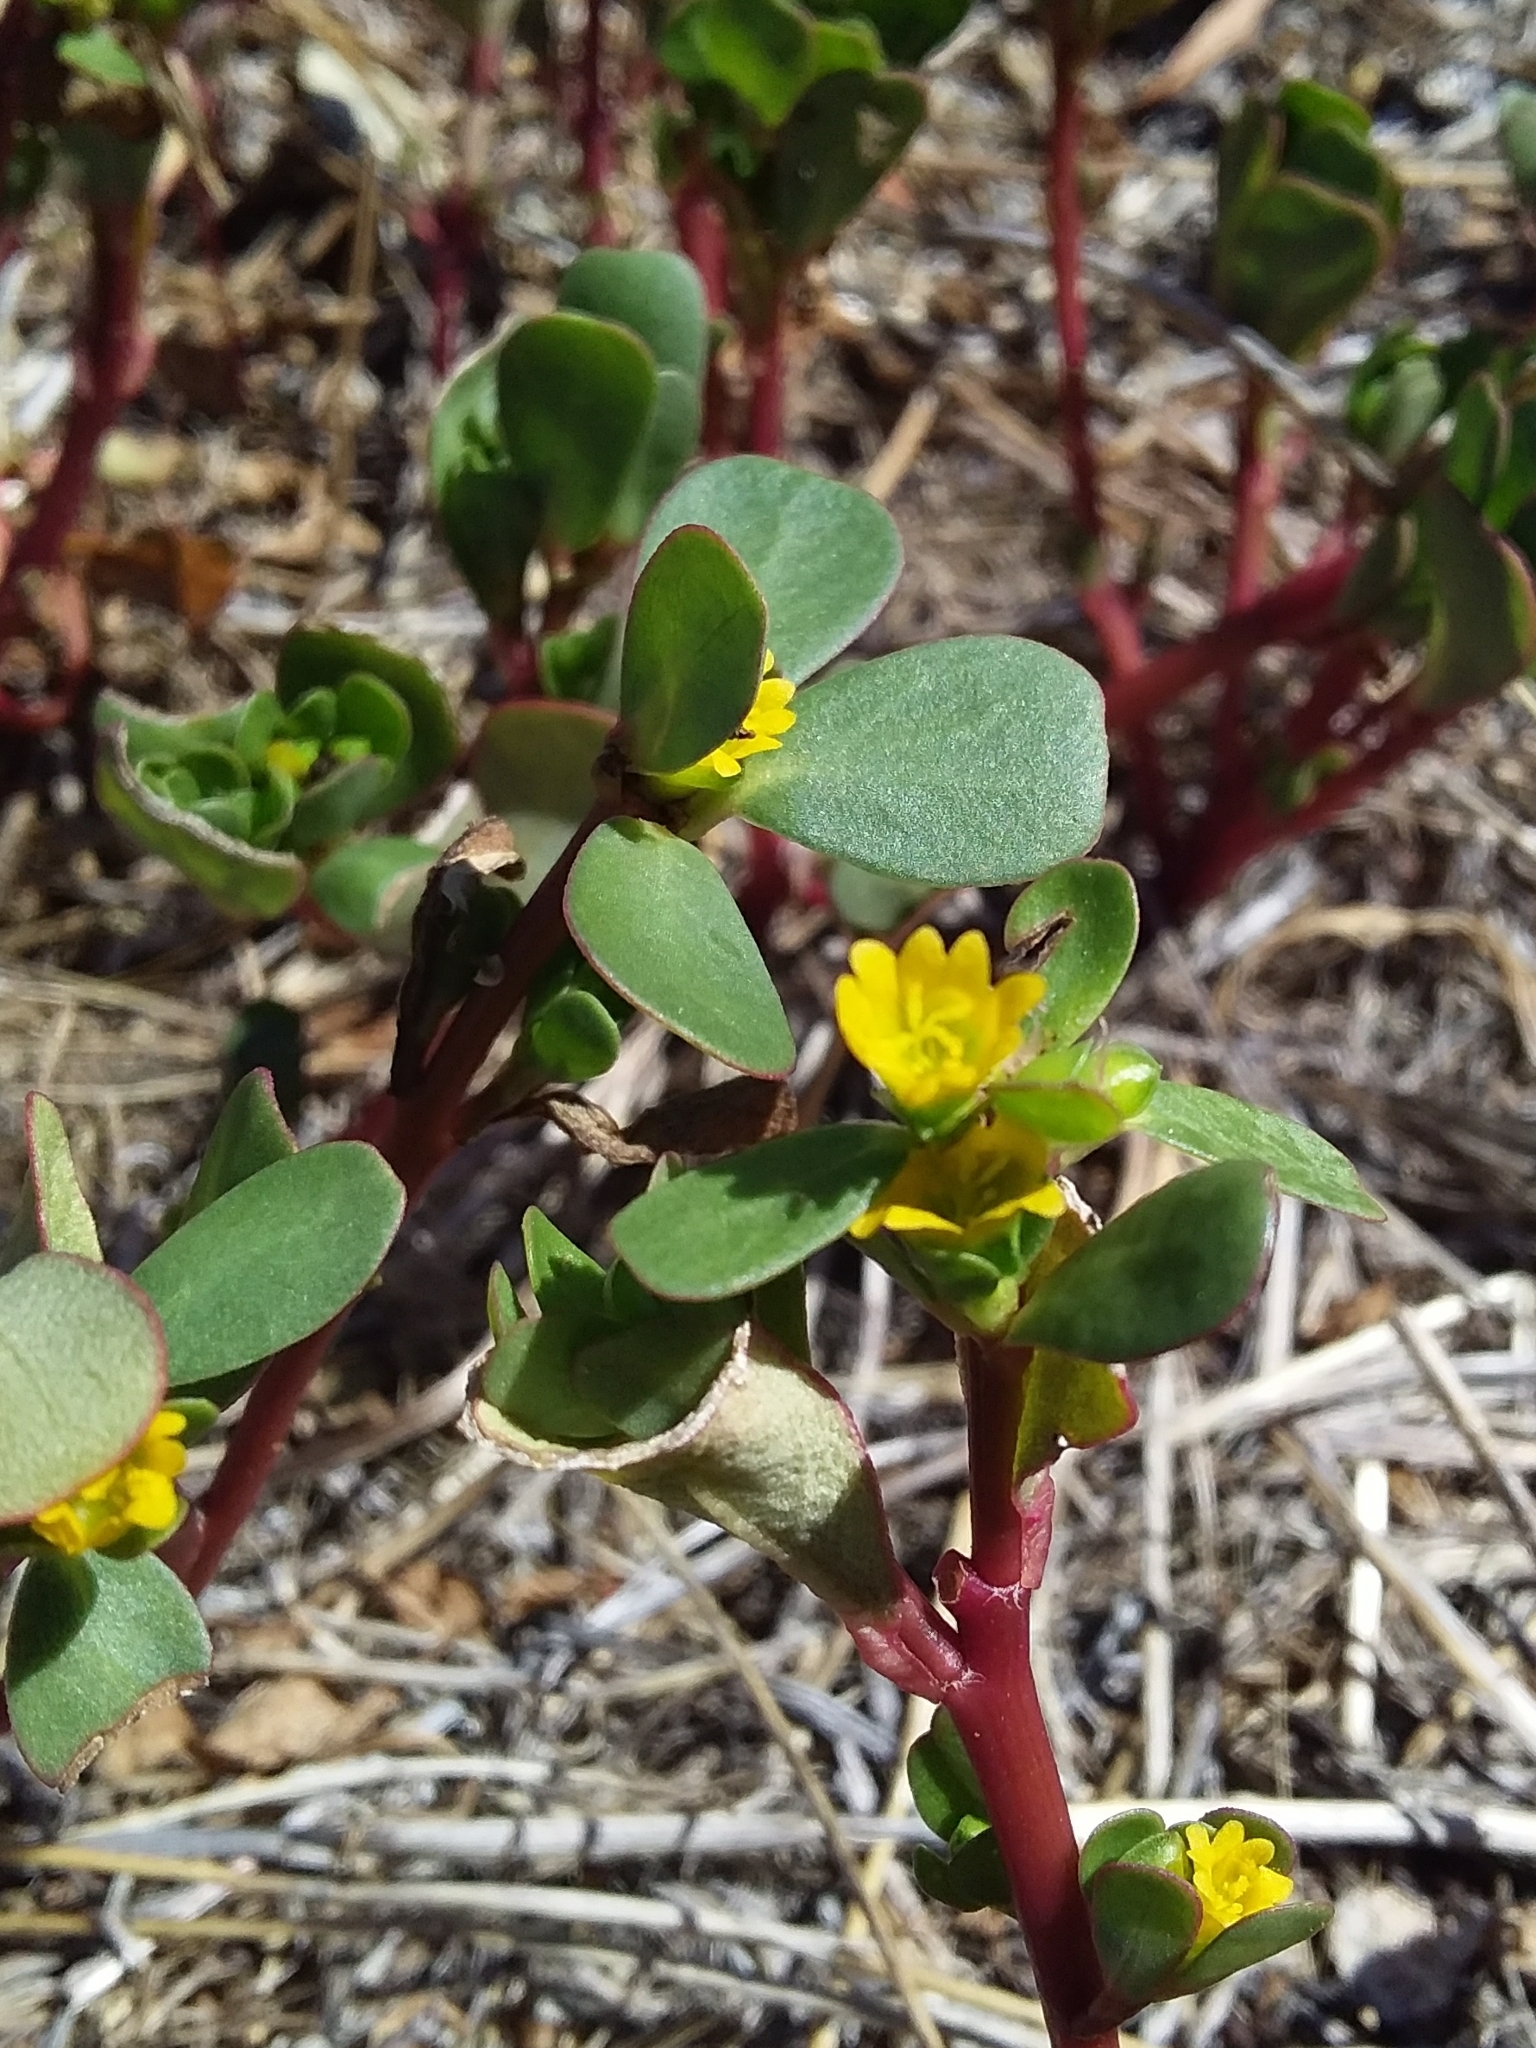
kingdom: Plantae
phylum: Tracheophyta
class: Magnoliopsida
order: Caryophyllales
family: Portulacaceae
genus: Portulaca
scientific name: Portulaca oleracea
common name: Common purslane
